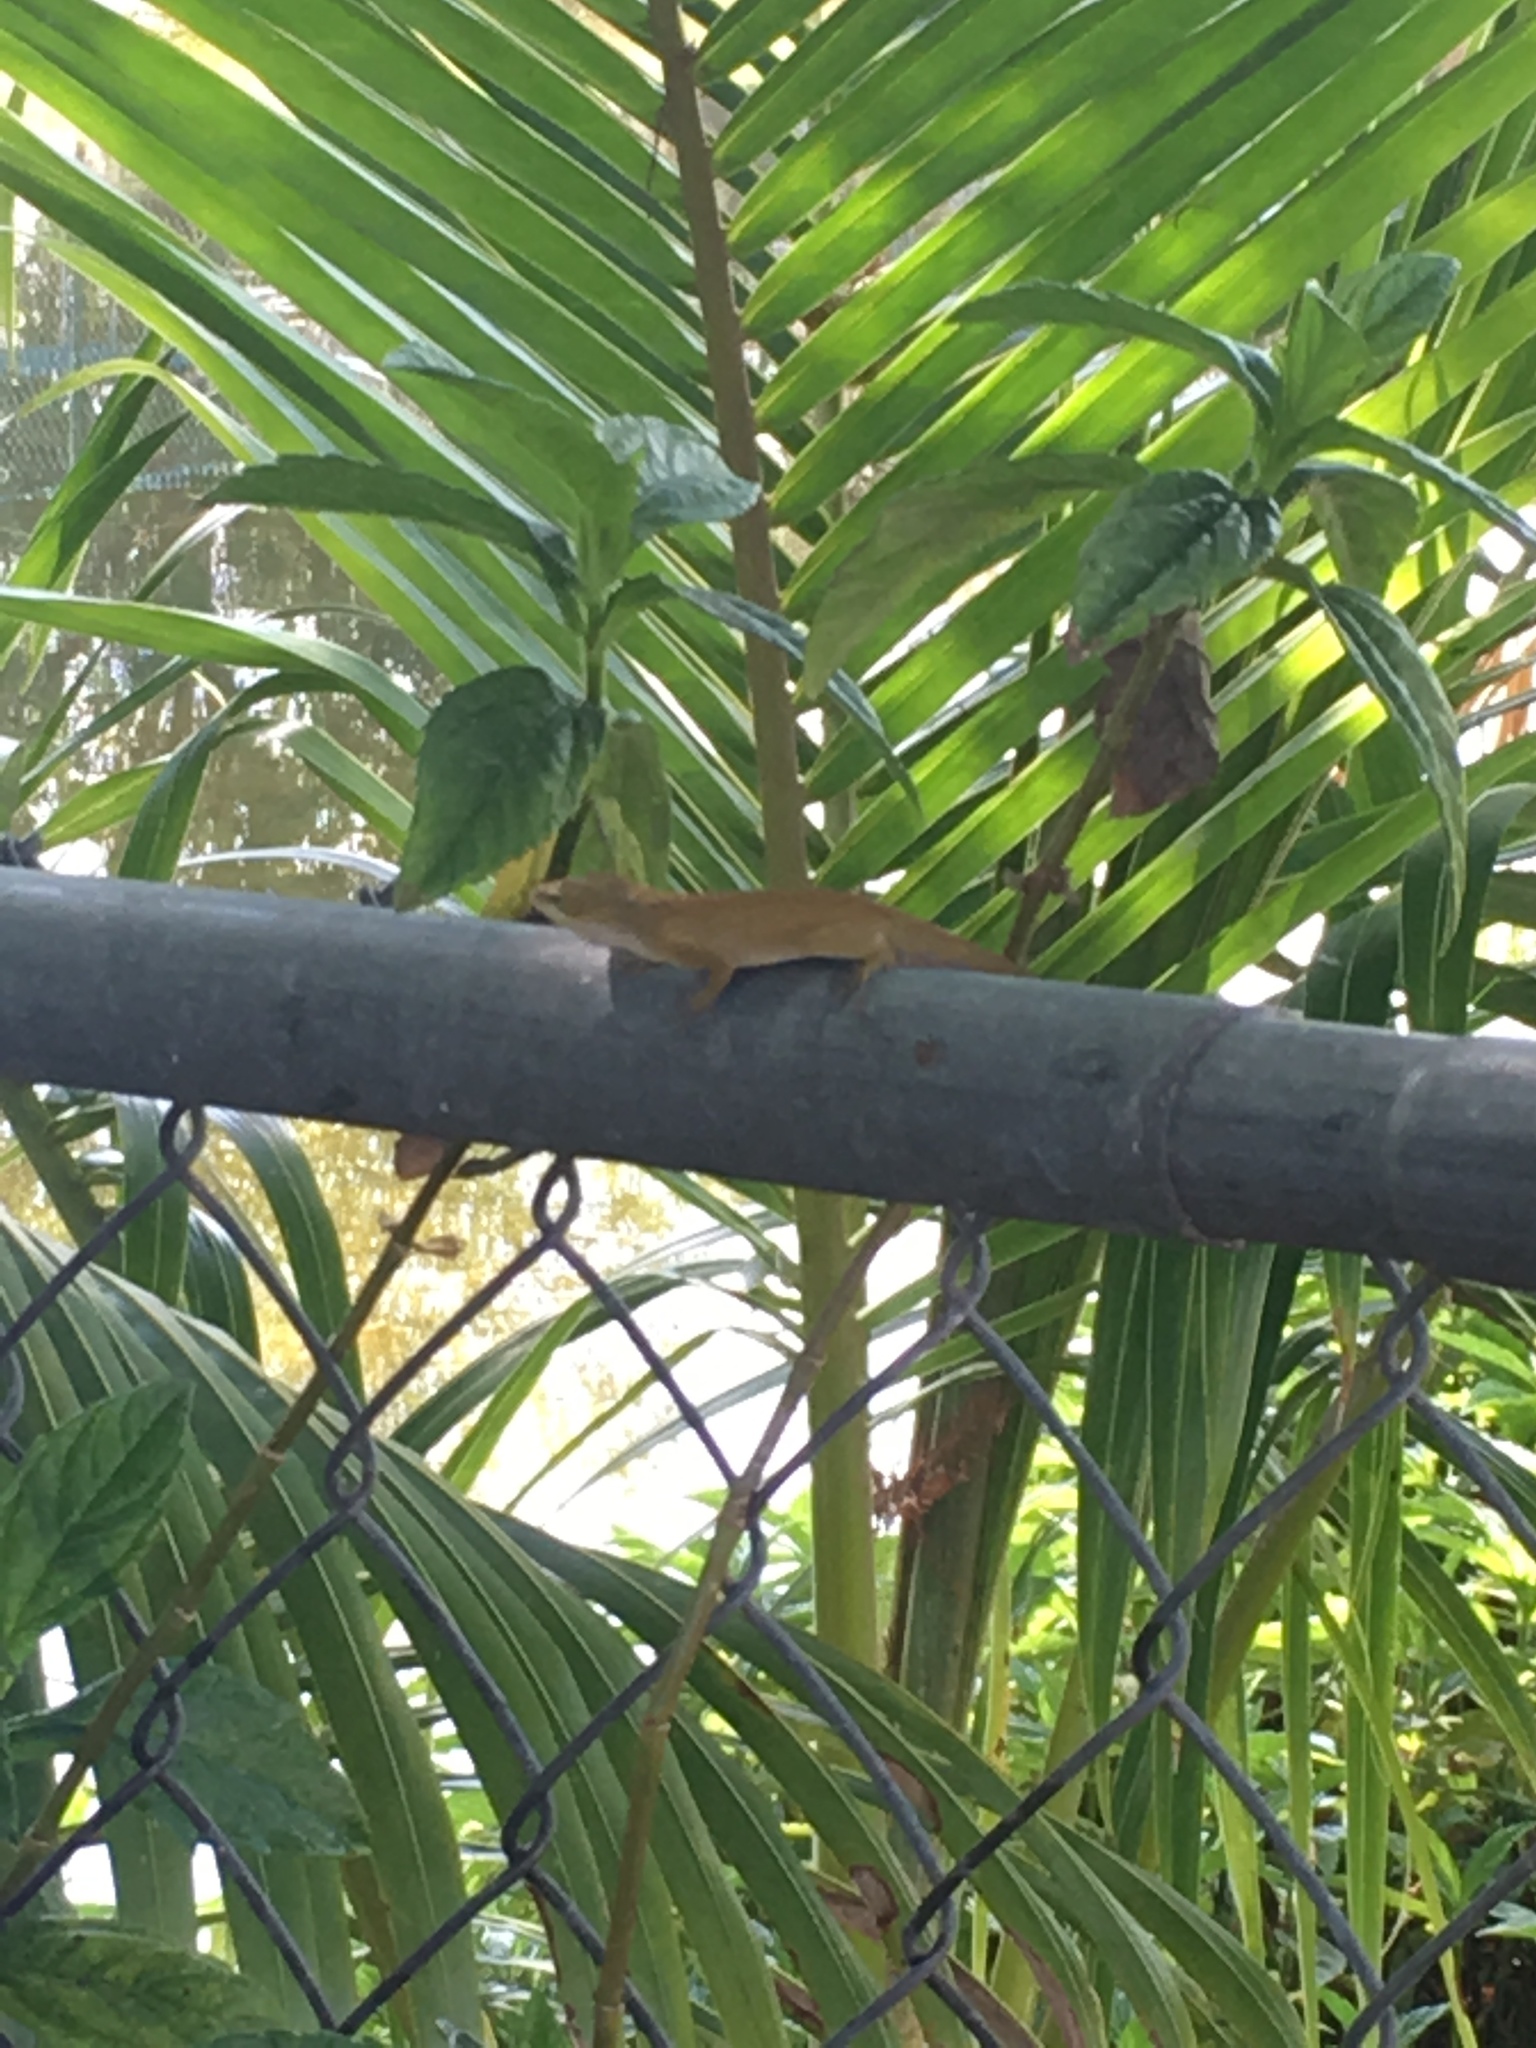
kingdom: Animalia
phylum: Chordata
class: Squamata
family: Dactyloidae
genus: Anolis
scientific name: Anolis carolinensis
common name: Green anole
